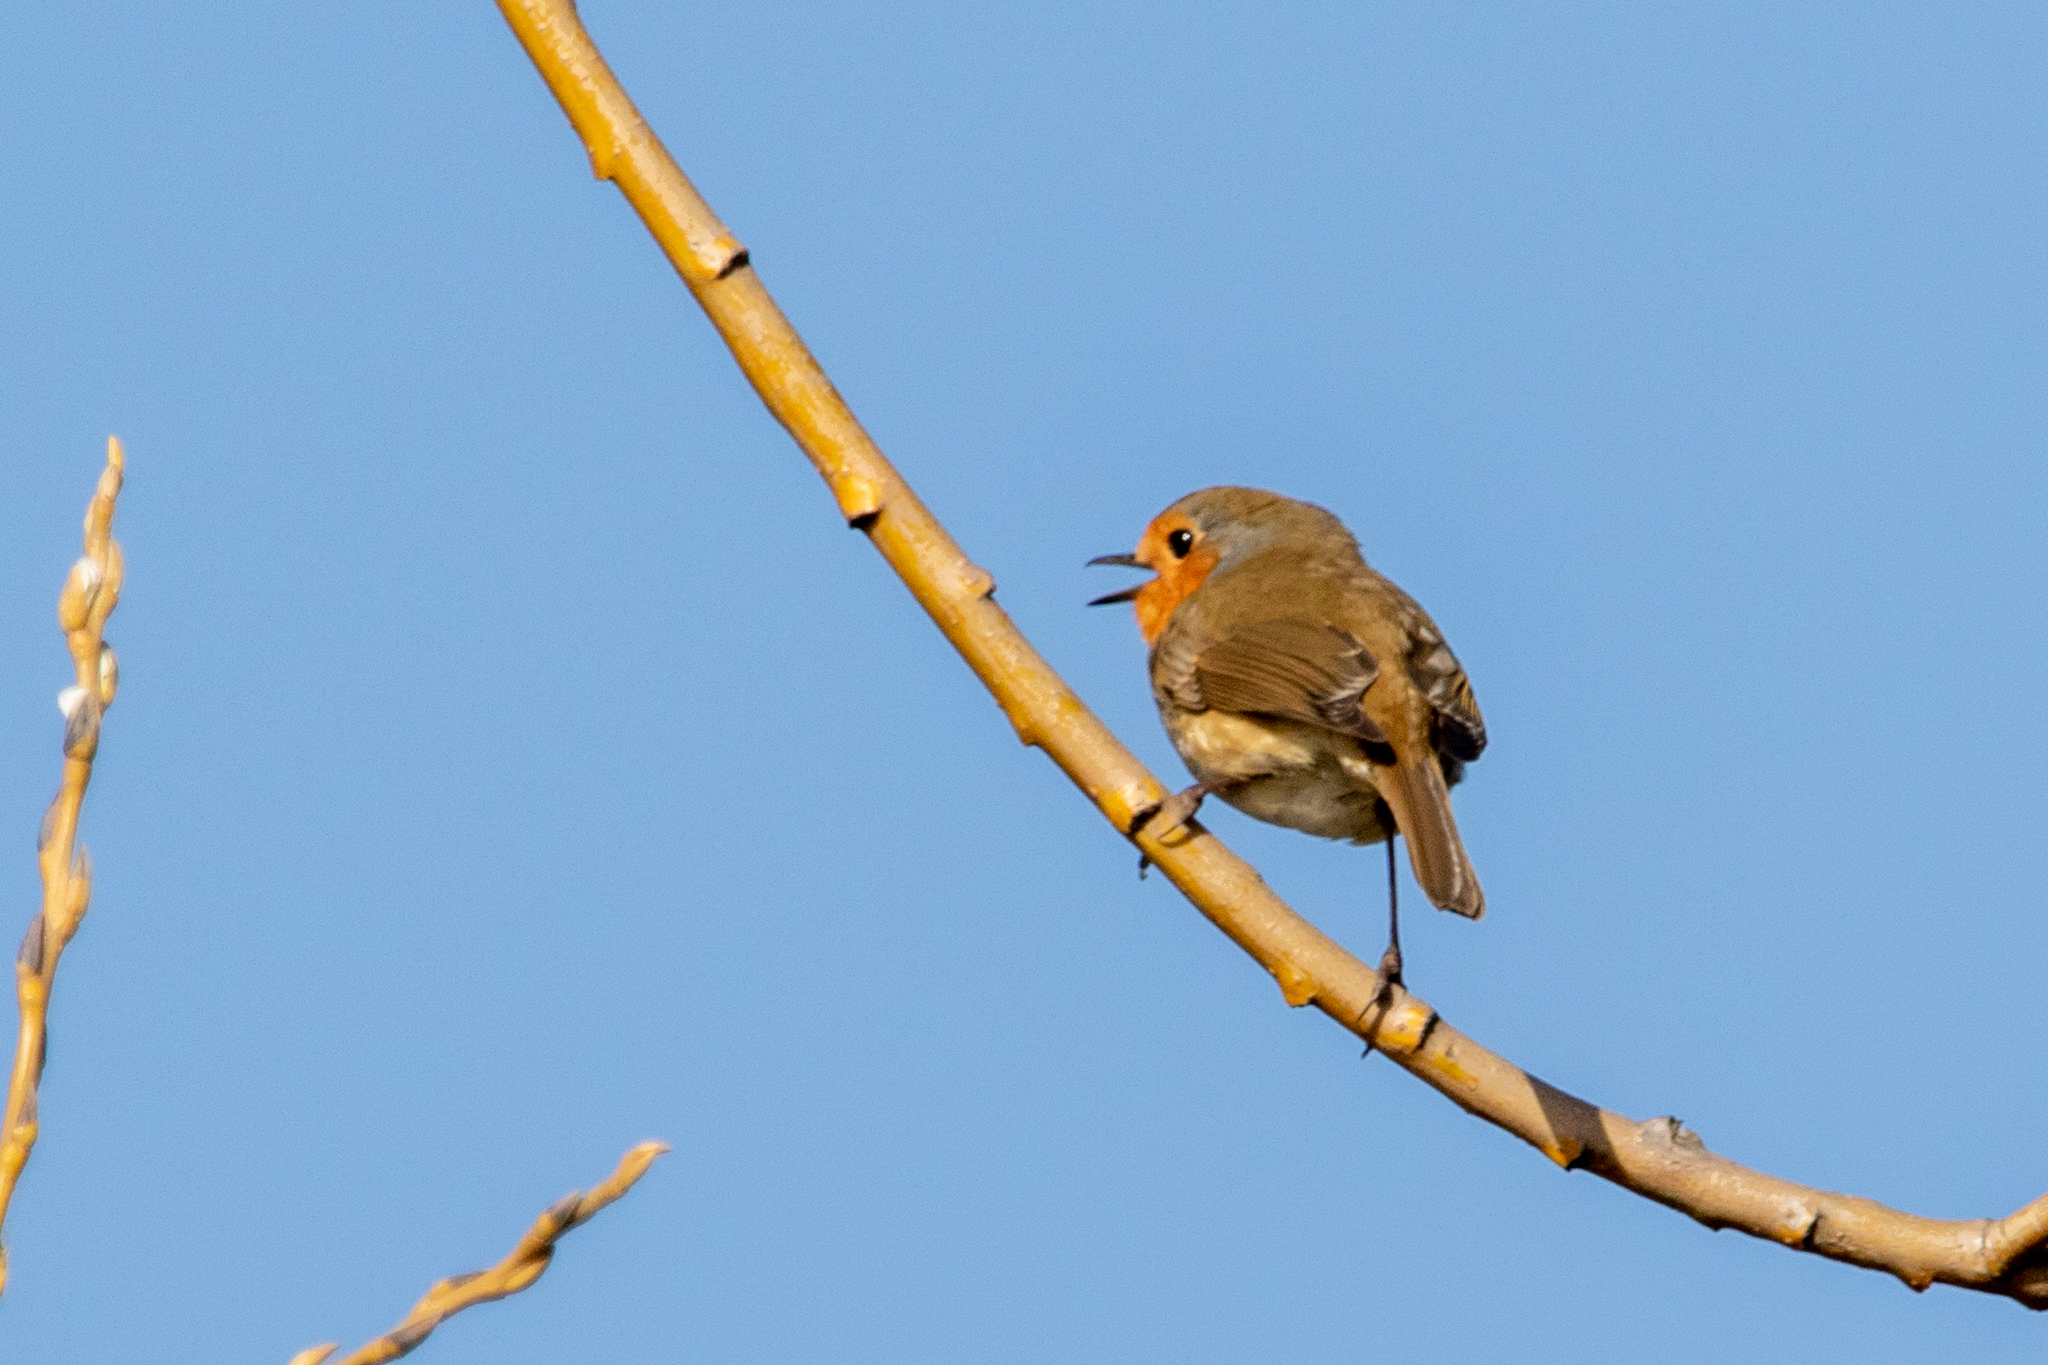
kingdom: Animalia
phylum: Chordata
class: Aves
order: Passeriformes
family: Muscicapidae
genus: Erithacus
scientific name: Erithacus rubecula
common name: European robin
